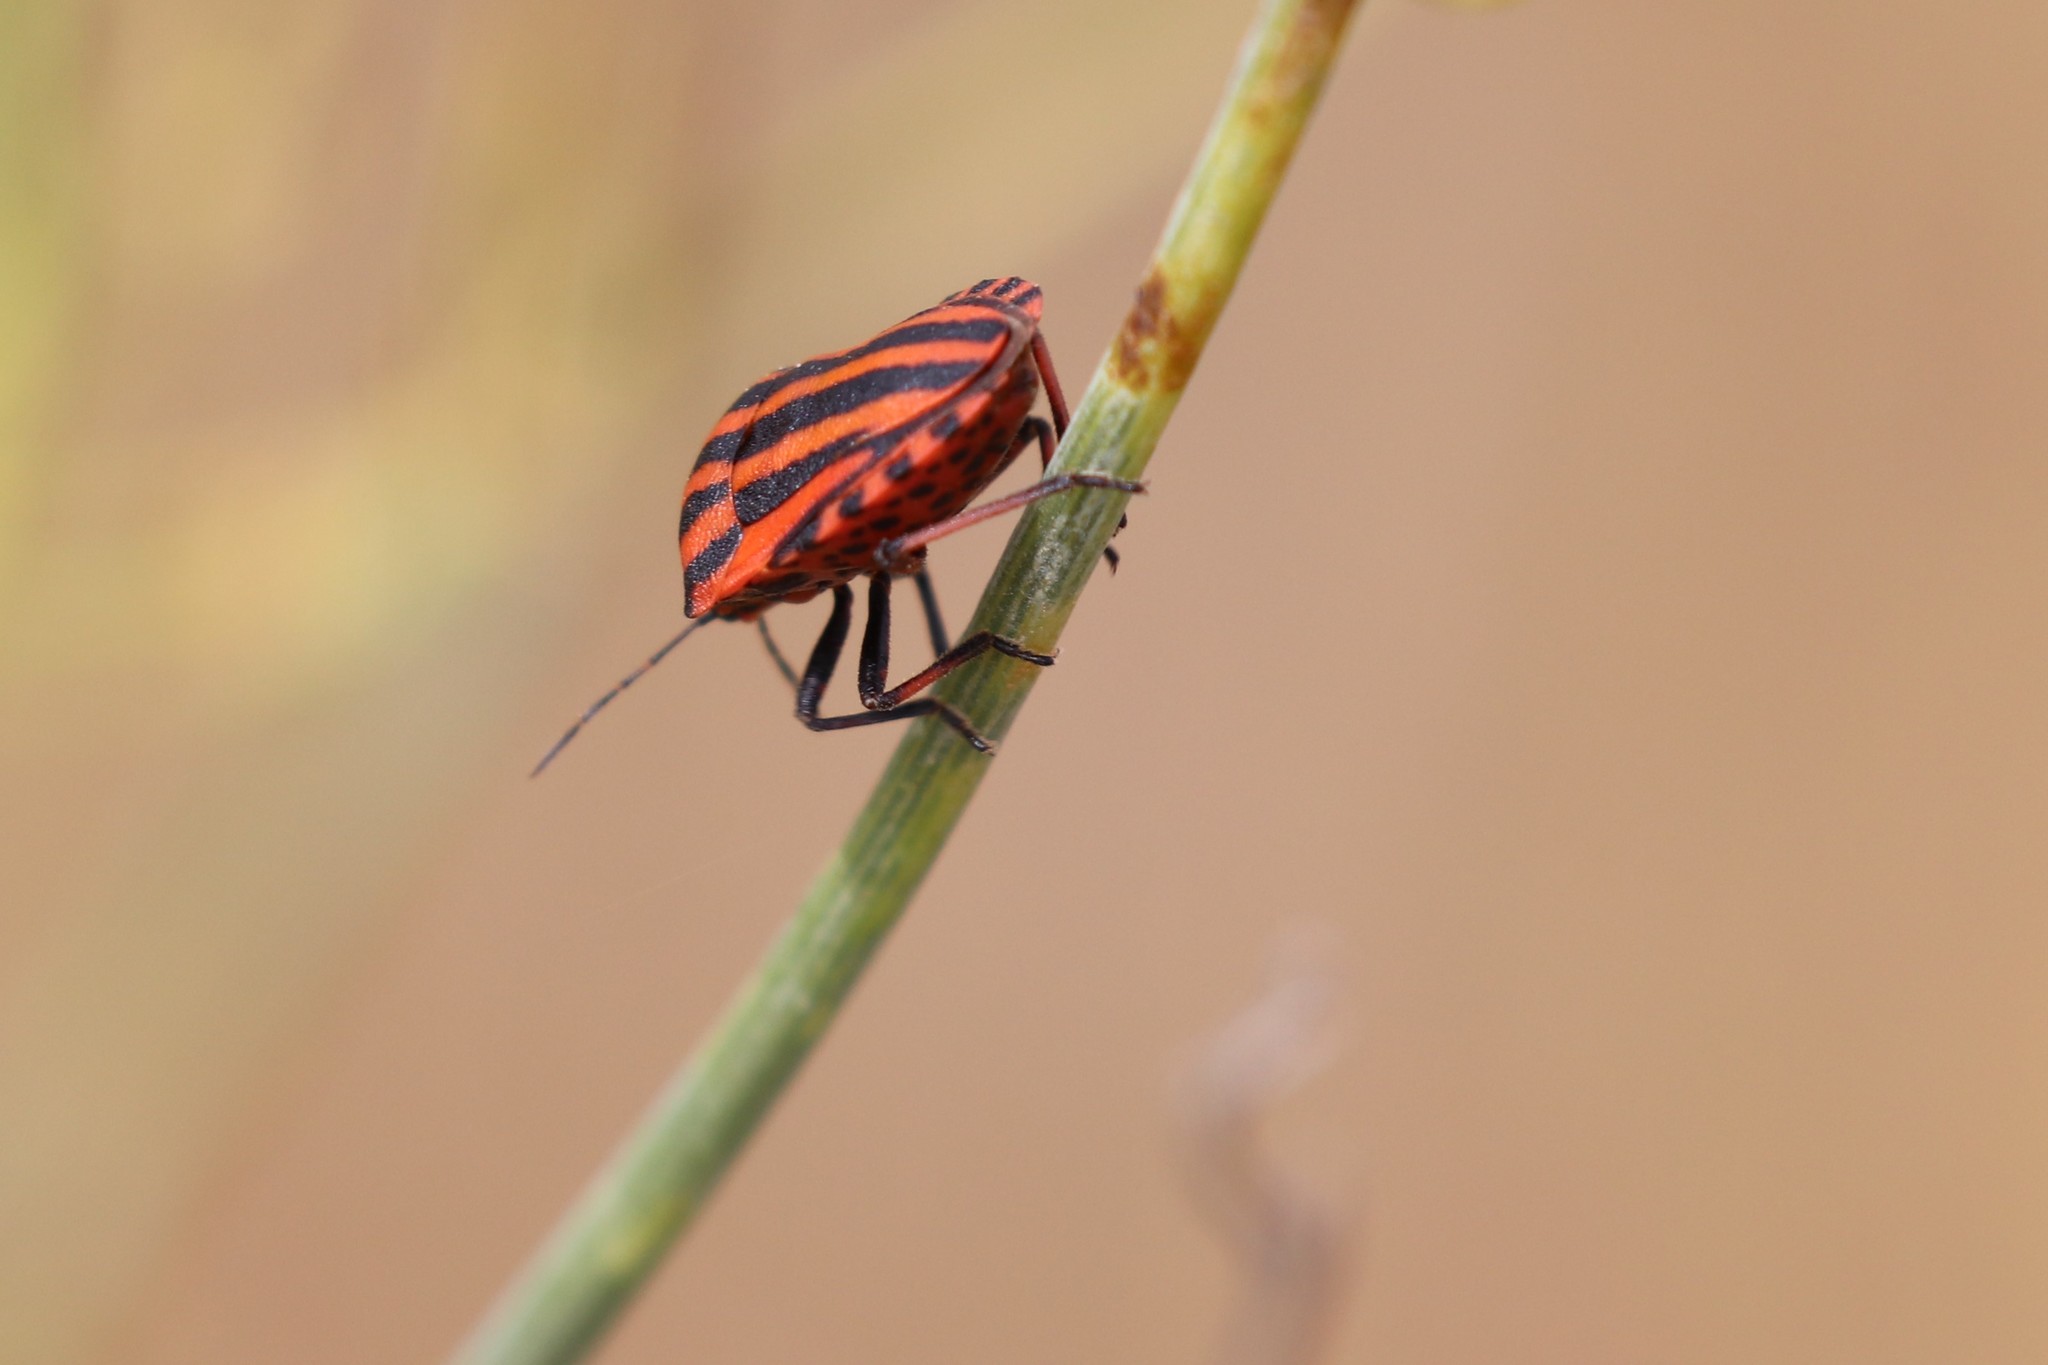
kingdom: Animalia
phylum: Arthropoda
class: Insecta
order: Hemiptera
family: Pentatomidae
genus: Graphosoma
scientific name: Graphosoma italicum
